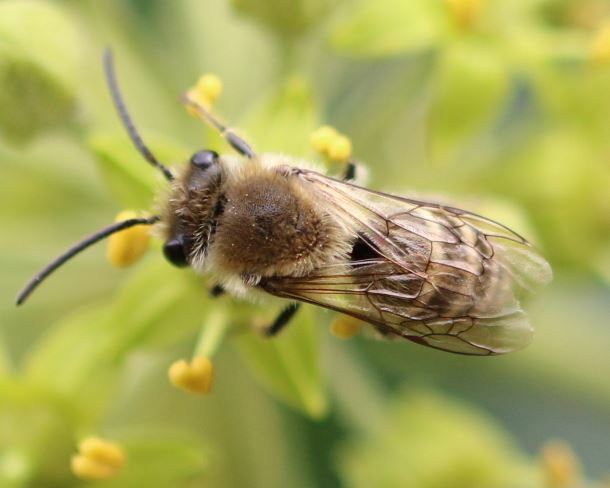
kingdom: Animalia
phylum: Arthropoda
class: Insecta
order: Hymenoptera
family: Colletidae
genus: Colletes
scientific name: Colletes hederae
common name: Ivy bee
